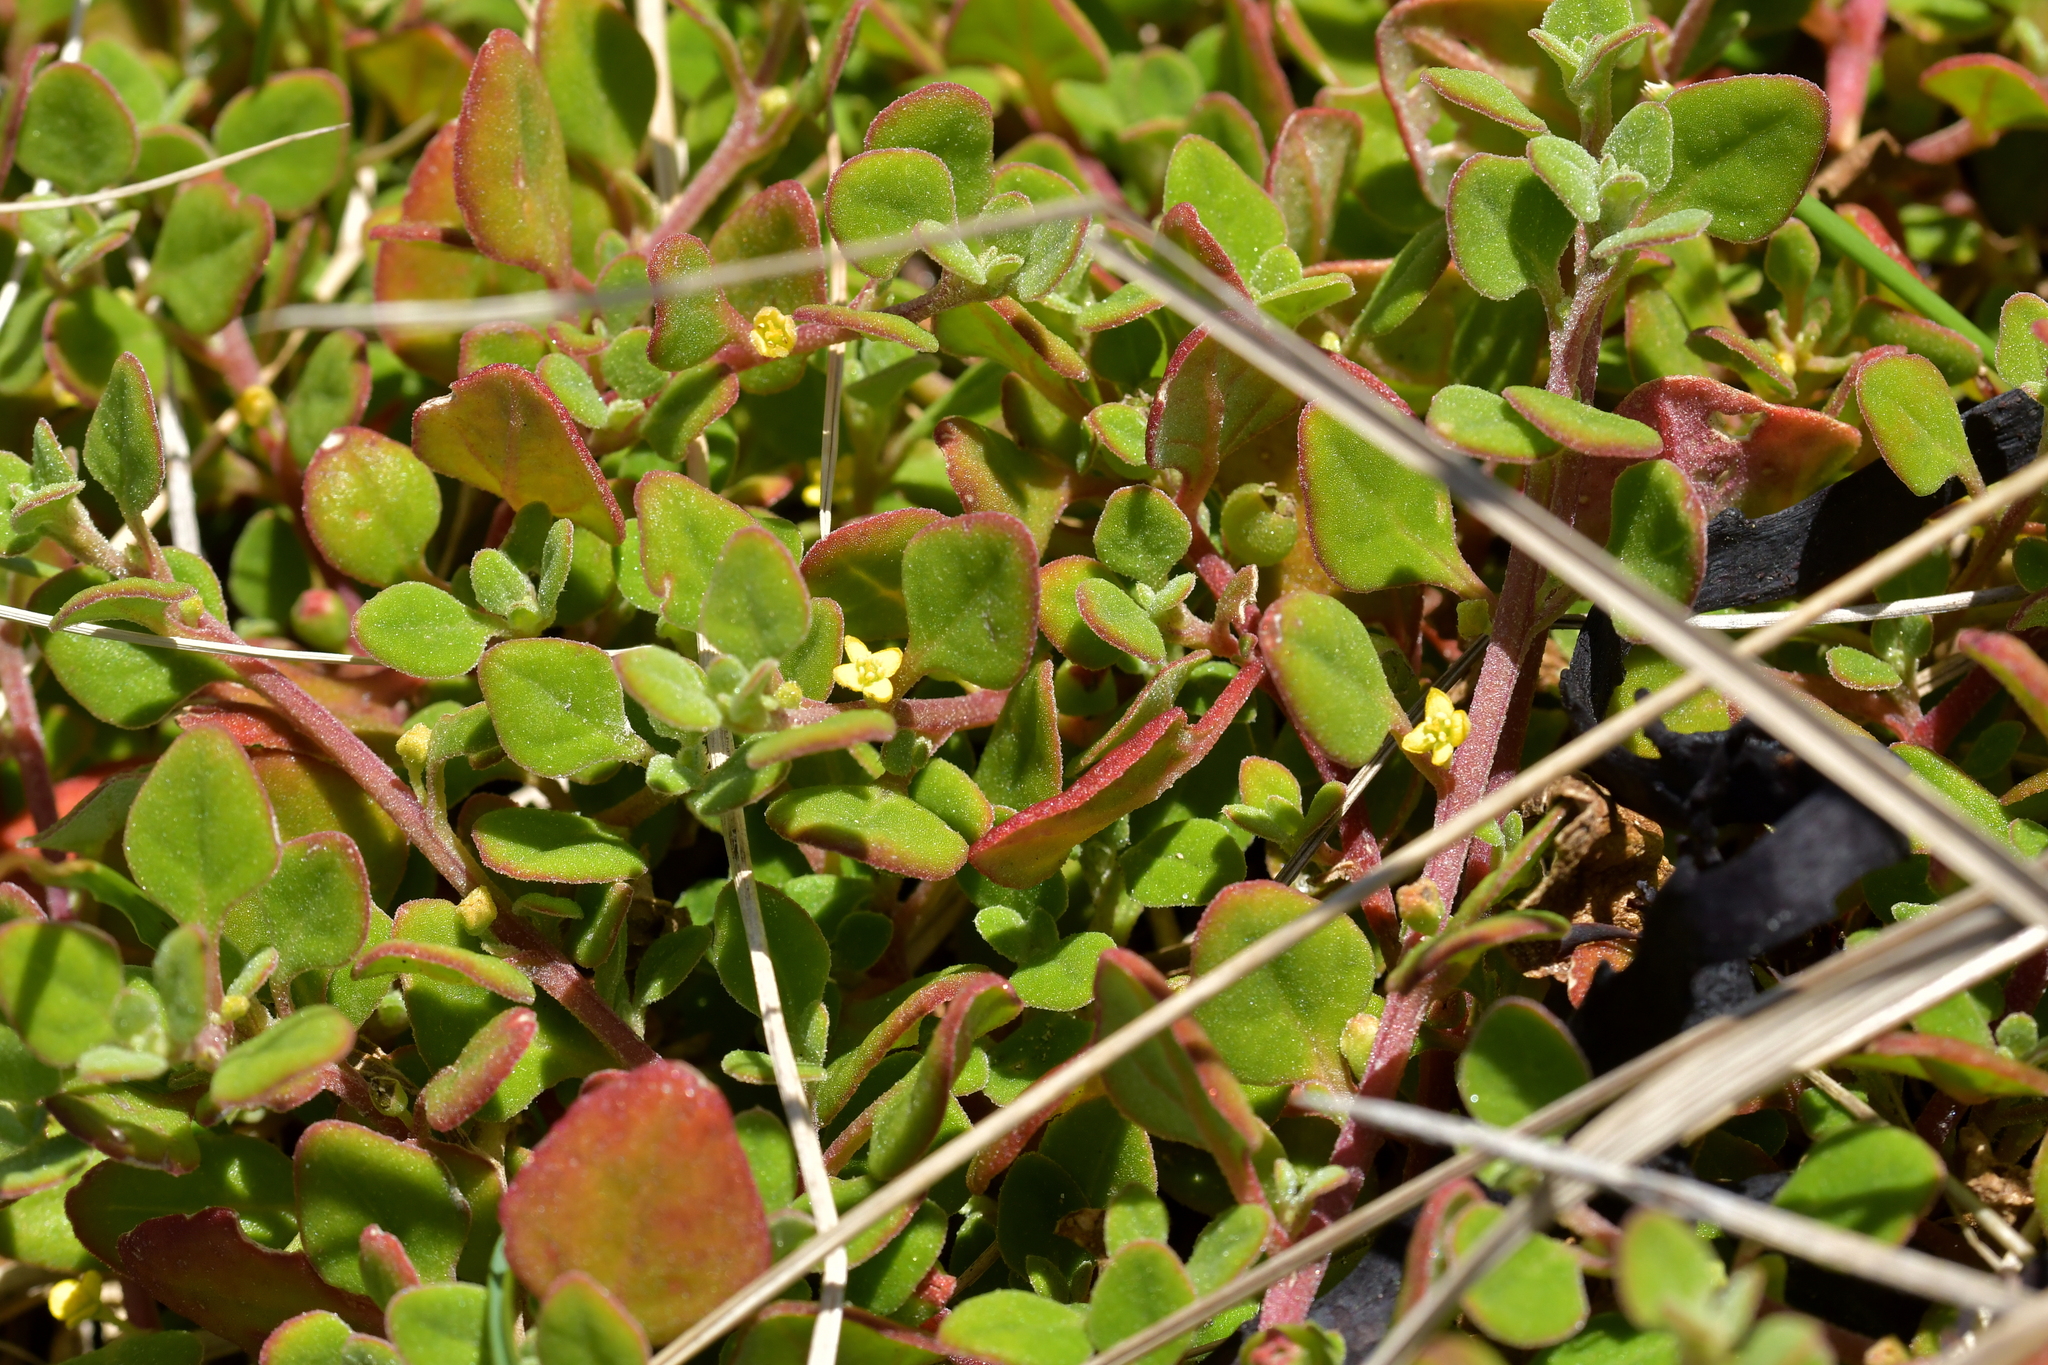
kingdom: Plantae
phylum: Tracheophyta
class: Magnoliopsida
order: Caryophyllales
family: Aizoaceae
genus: Tetragonia
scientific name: Tetragonia implexicoma
